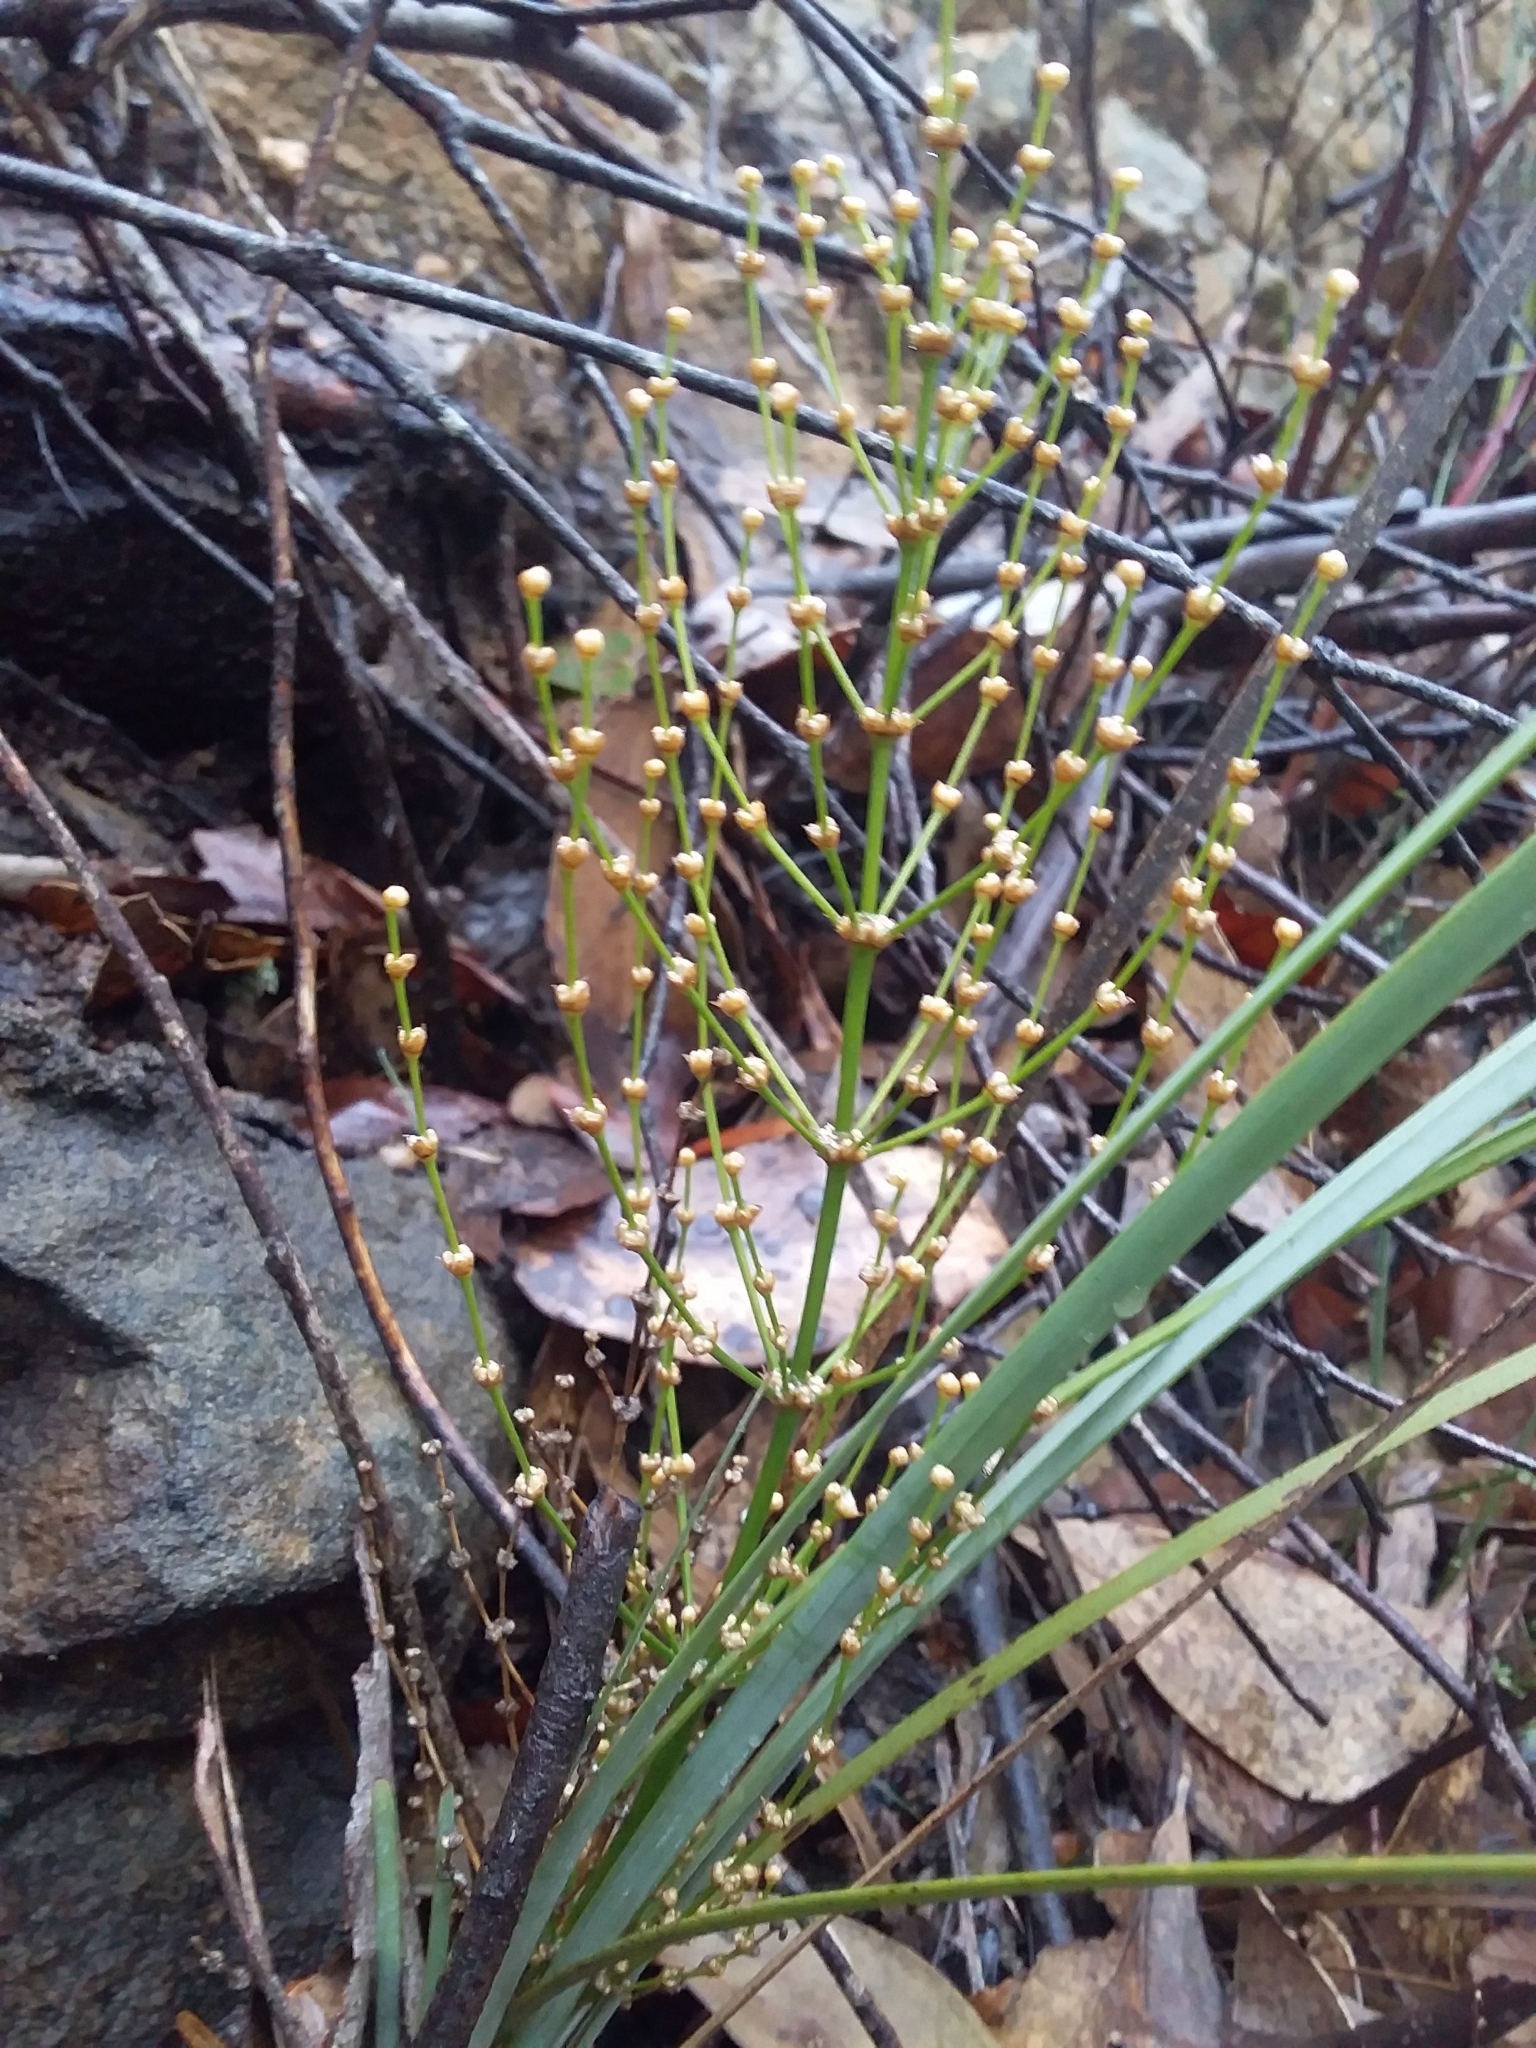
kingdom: Plantae
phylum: Tracheophyta
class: Liliopsida
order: Asparagales
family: Asparagaceae
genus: Lomandra
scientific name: Lomandra multiflora
